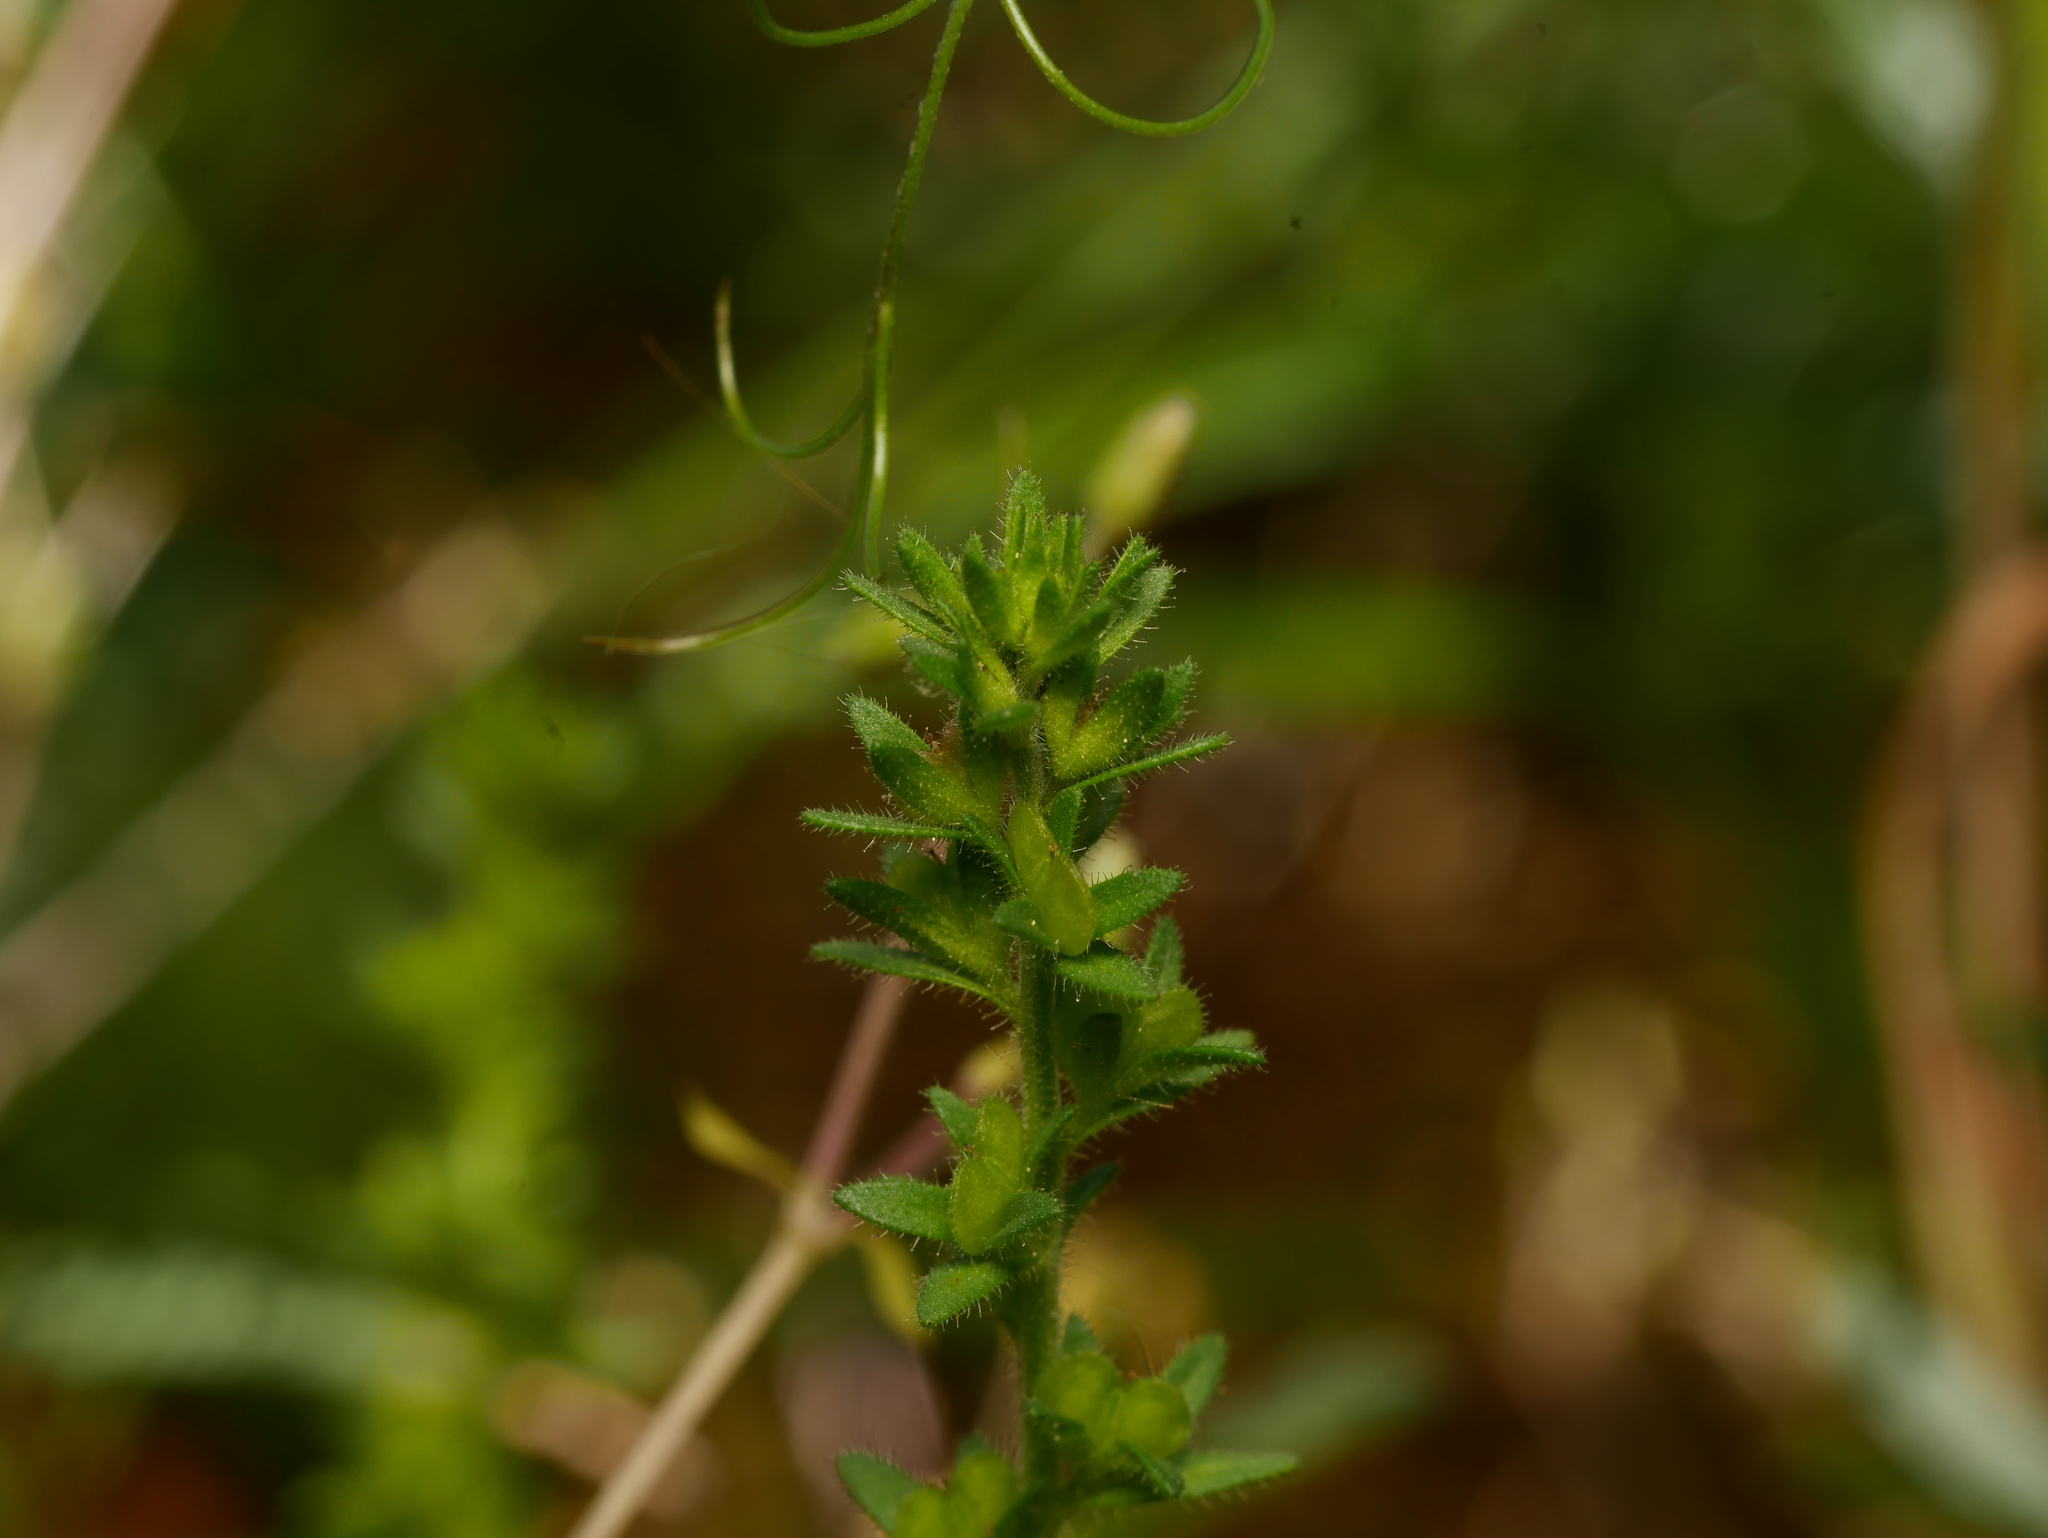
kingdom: Plantae
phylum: Tracheophyta
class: Magnoliopsida
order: Lamiales
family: Plantaginaceae
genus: Veronica
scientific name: Veronica arvensis
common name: Corn speedwell
